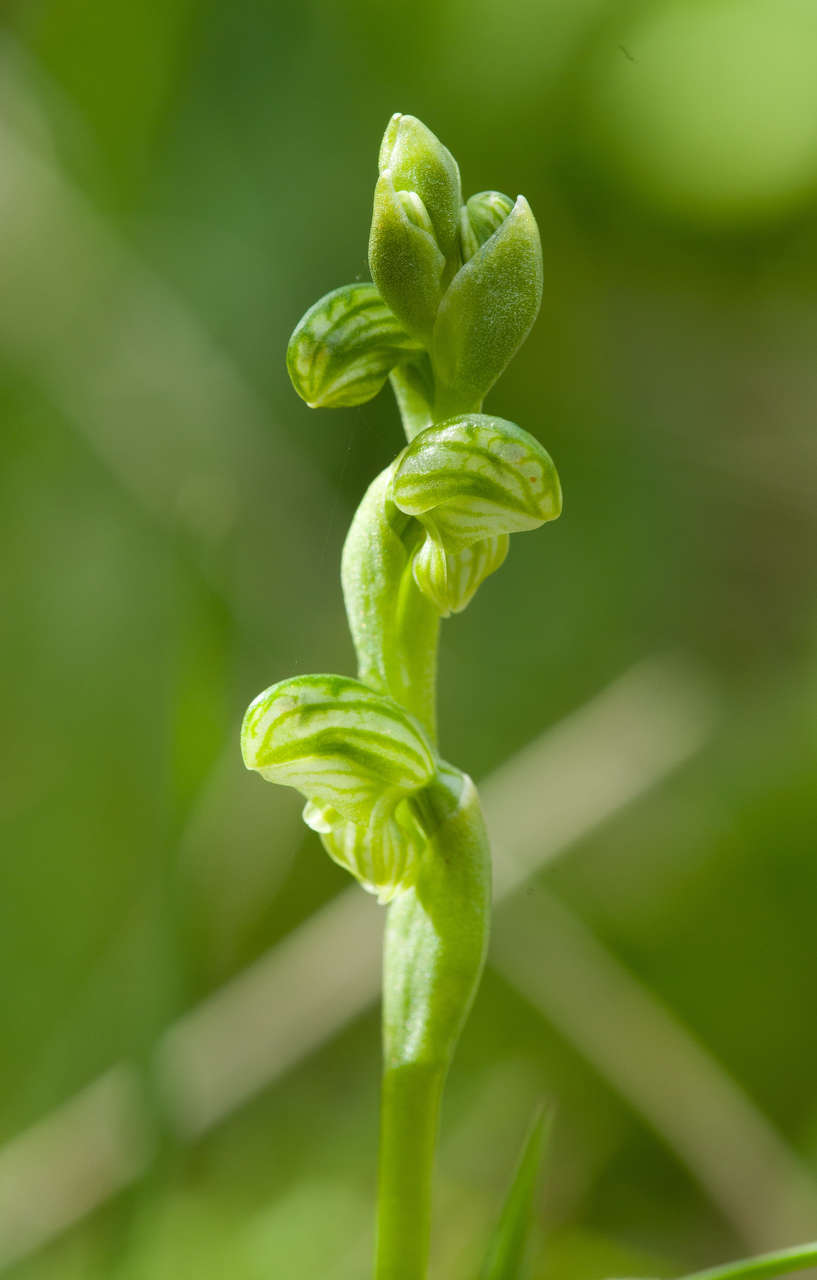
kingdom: Plantae
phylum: Tracheophyta
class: Liliopsida
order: Asparagales
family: Orchidaceae
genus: Pterostylis
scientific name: Pterostylis crassicaulis
